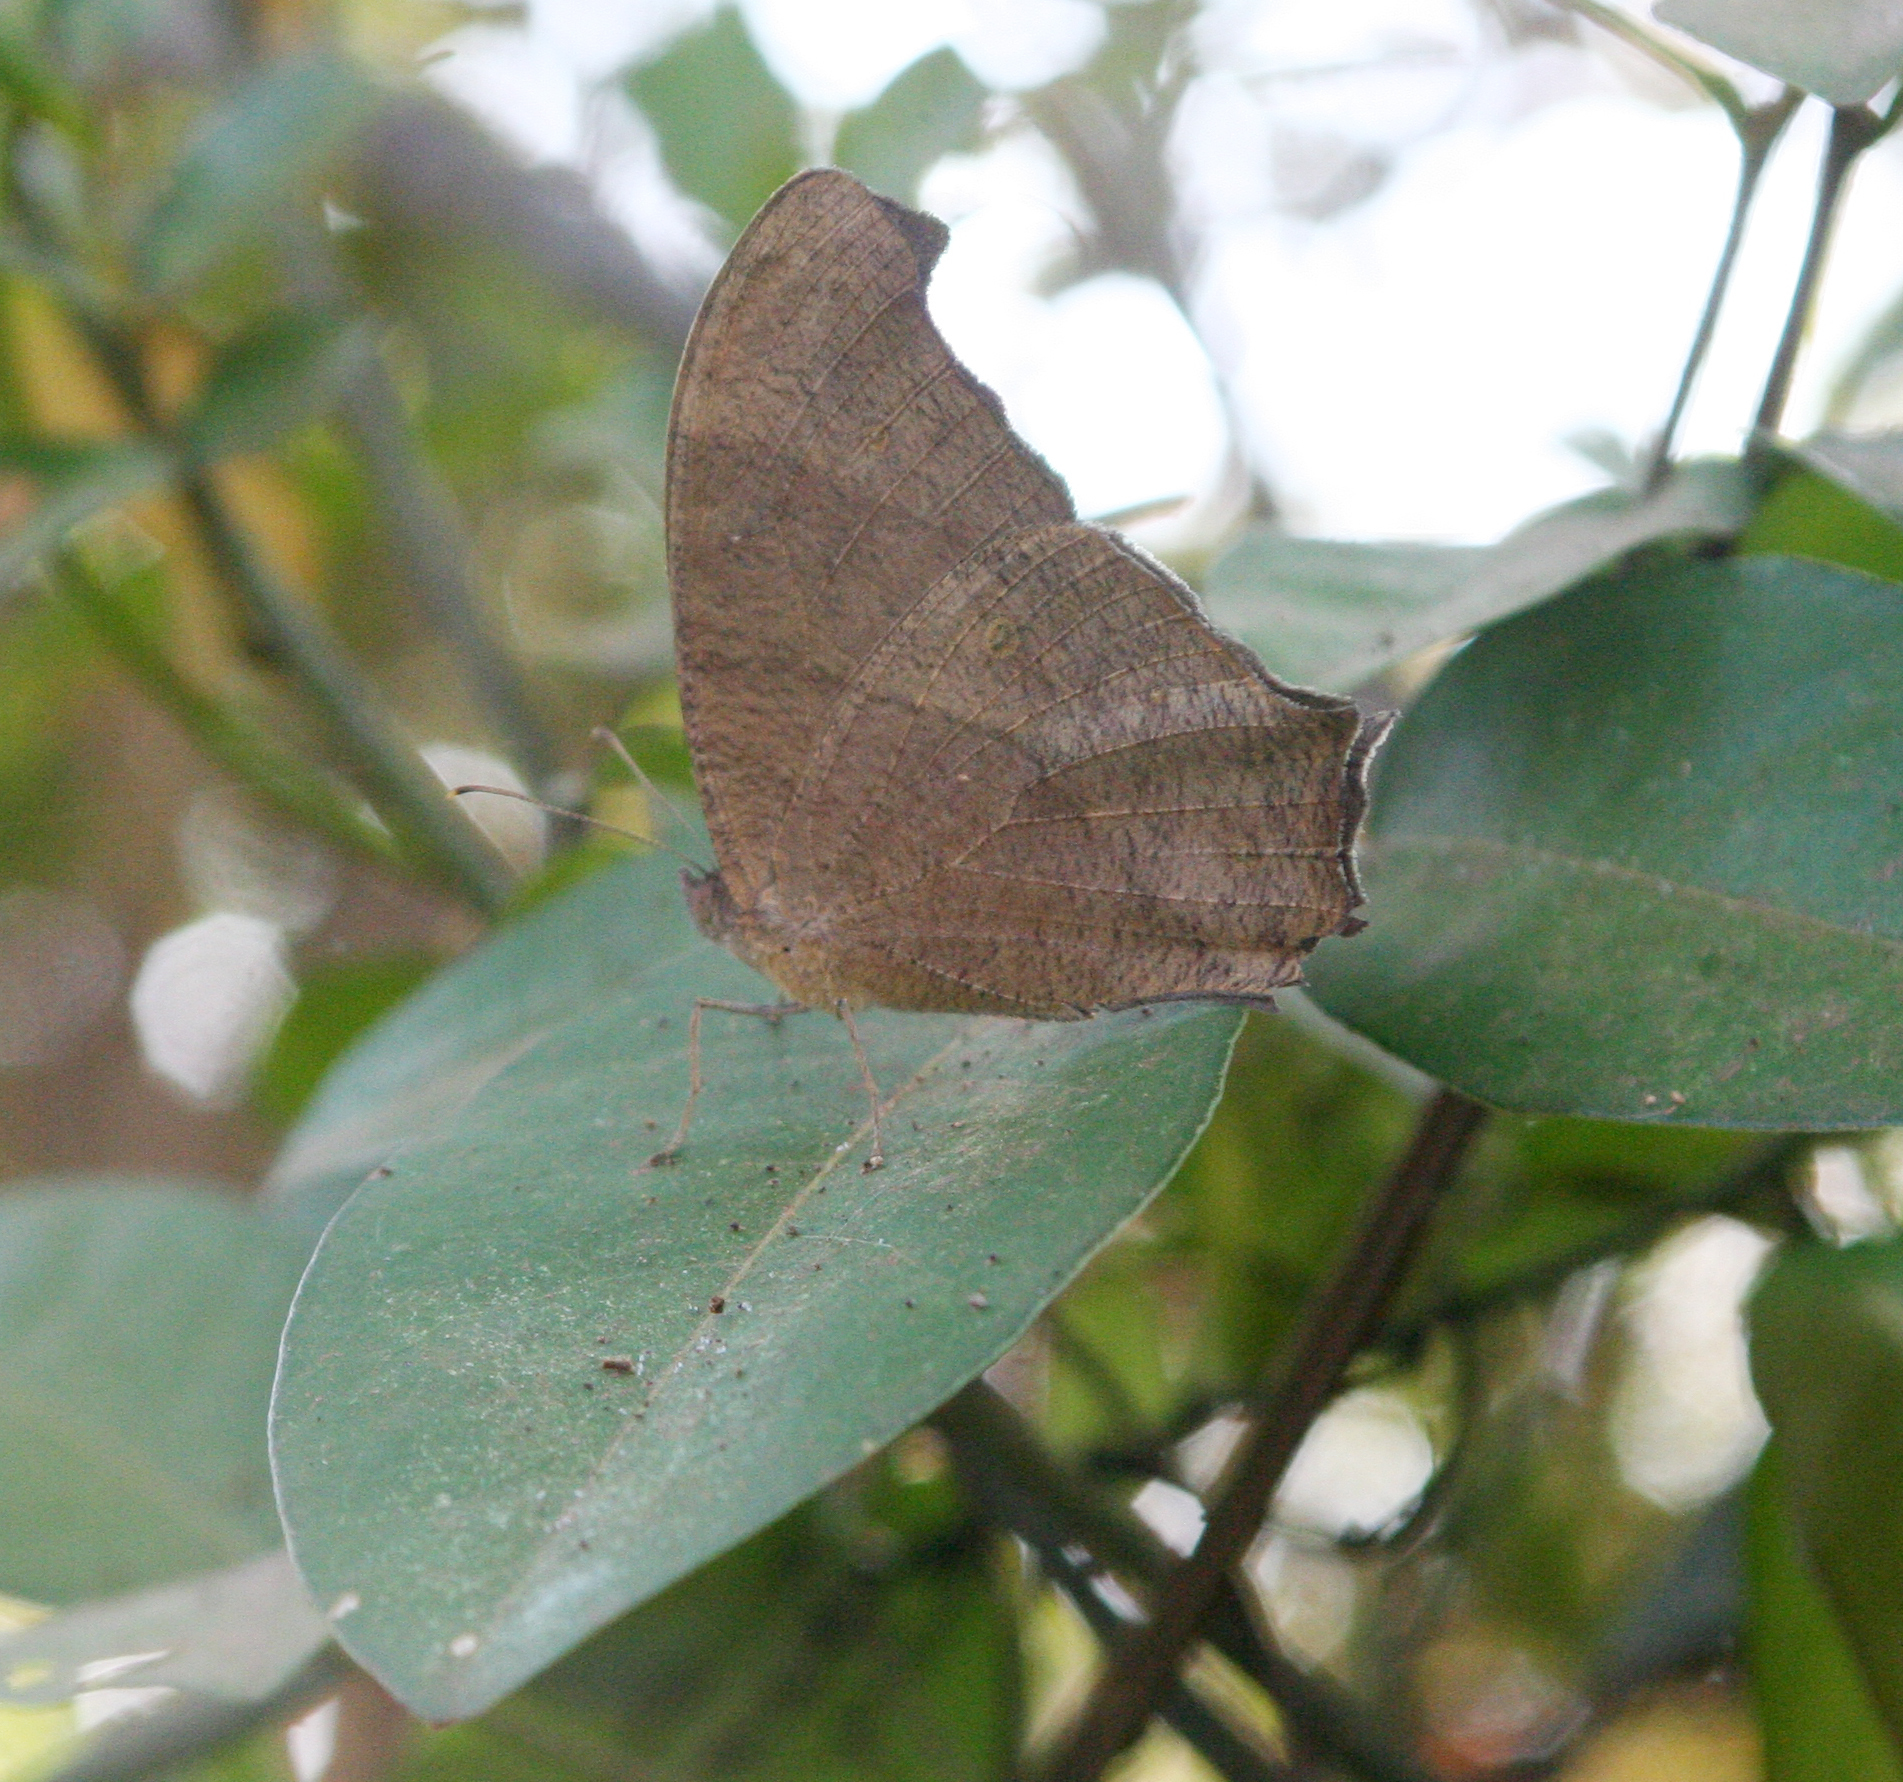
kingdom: Animalia
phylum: Arthropoda
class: Insecta
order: Lepidoptera
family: Nymphalidae
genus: Melanitis
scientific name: Melanitis leda
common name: Twilight brown
